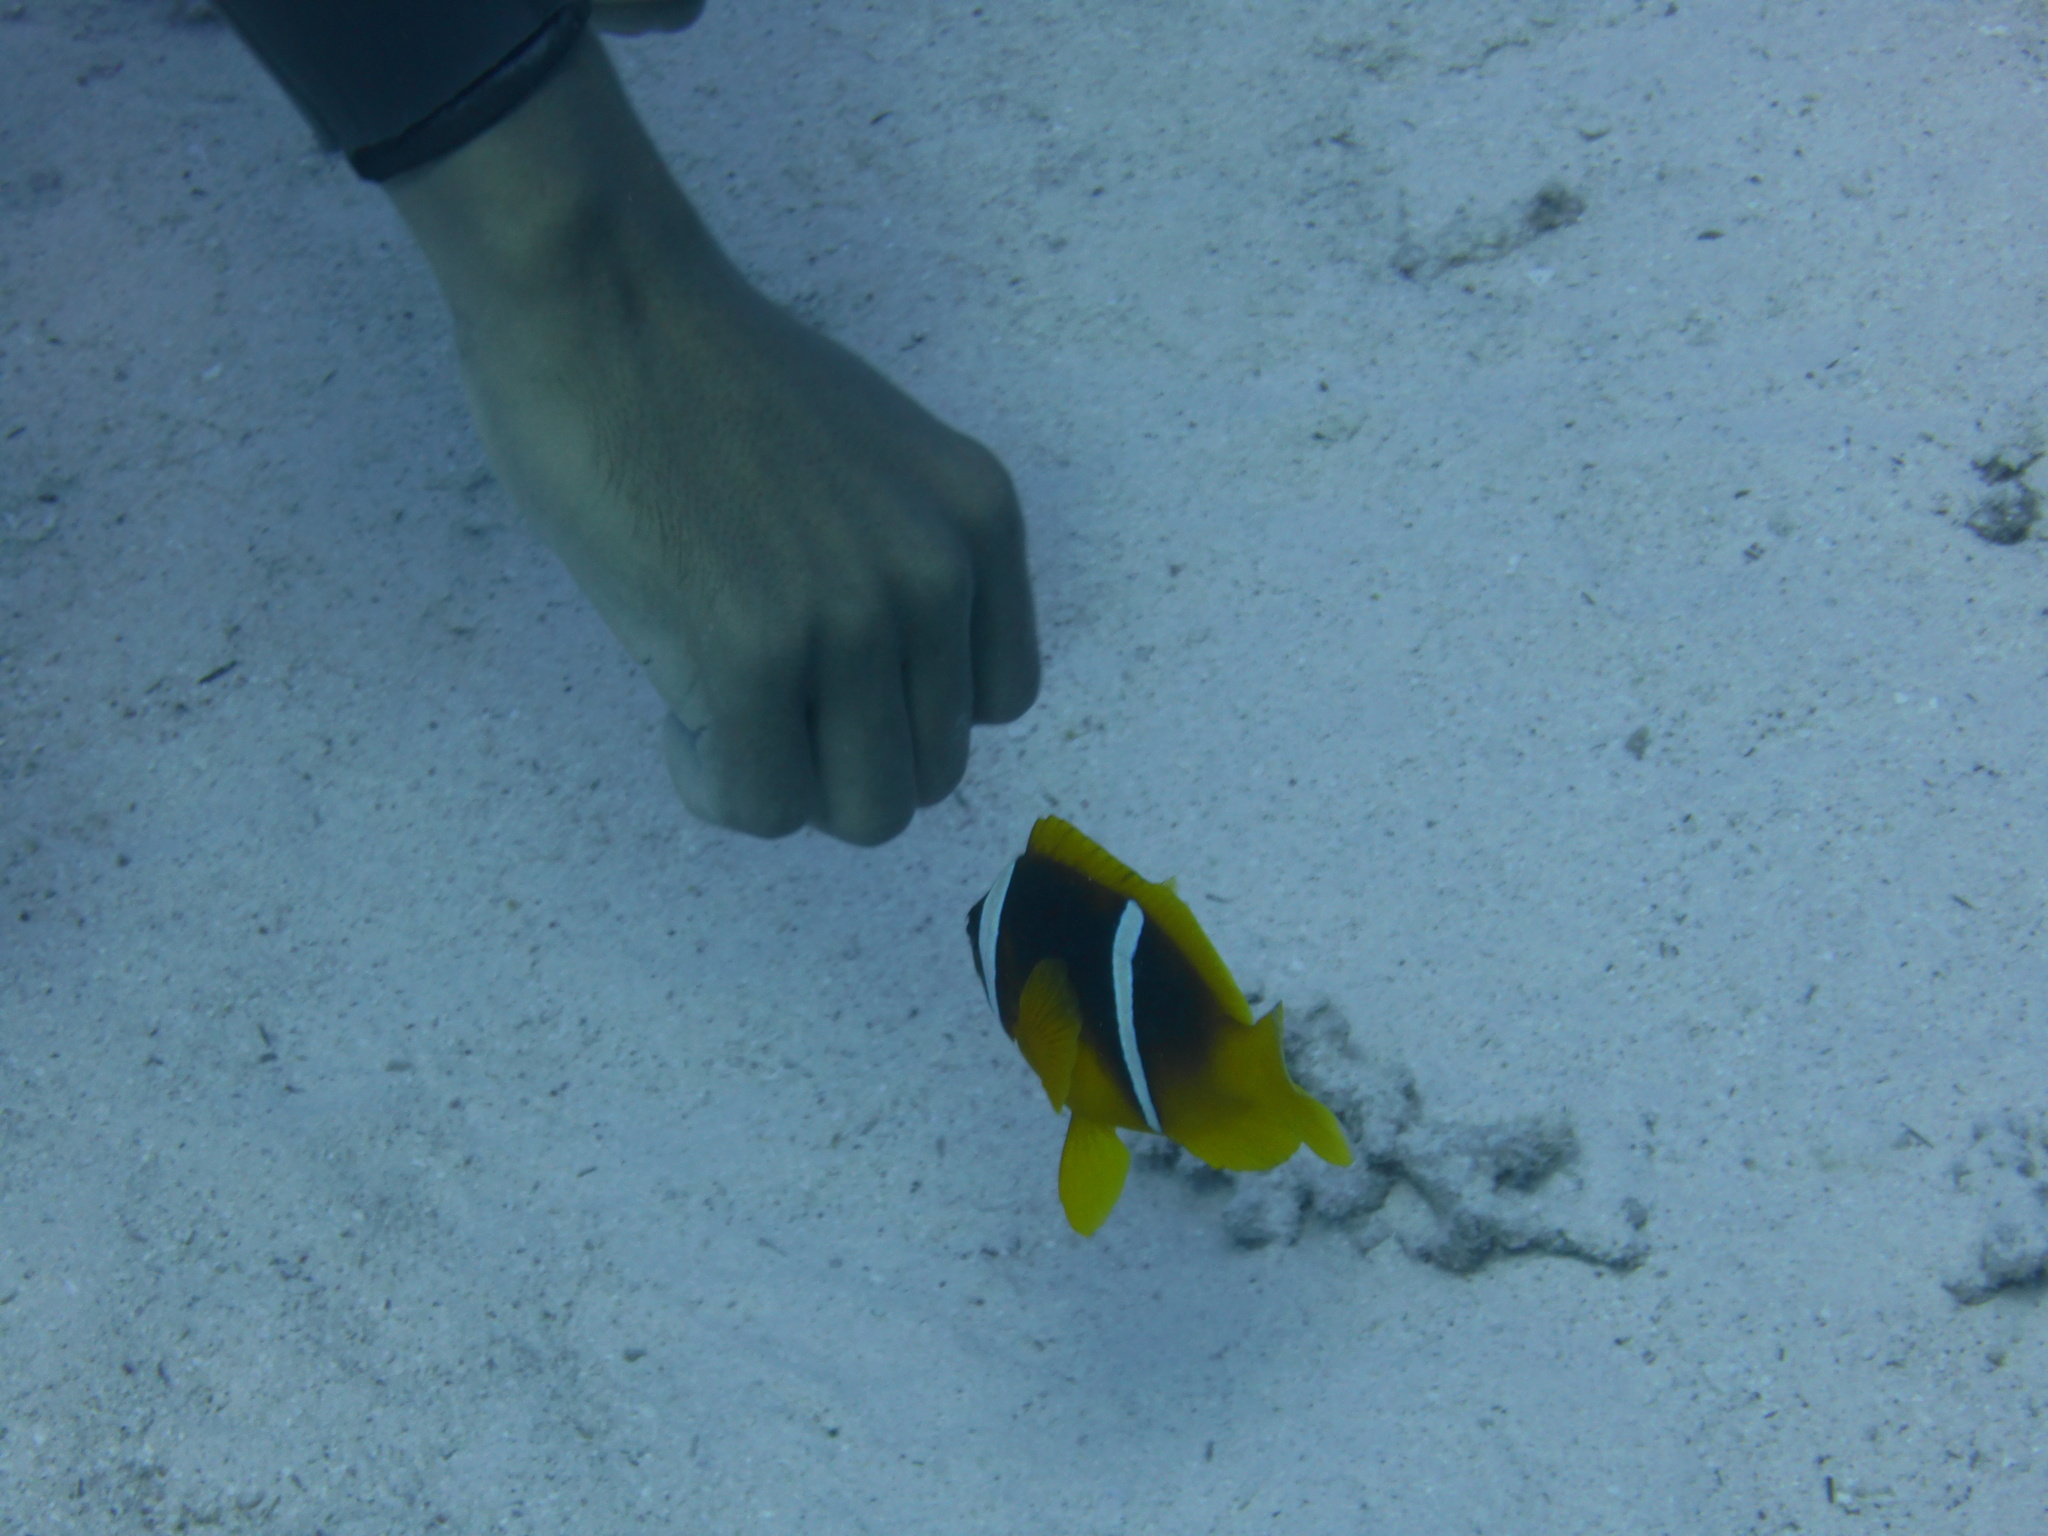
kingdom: Animalia
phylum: Chordata
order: Perciformes
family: Pomacentridae
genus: Amphiprion
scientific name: Amphiprion bicinctus
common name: Two-banded anemonefish
